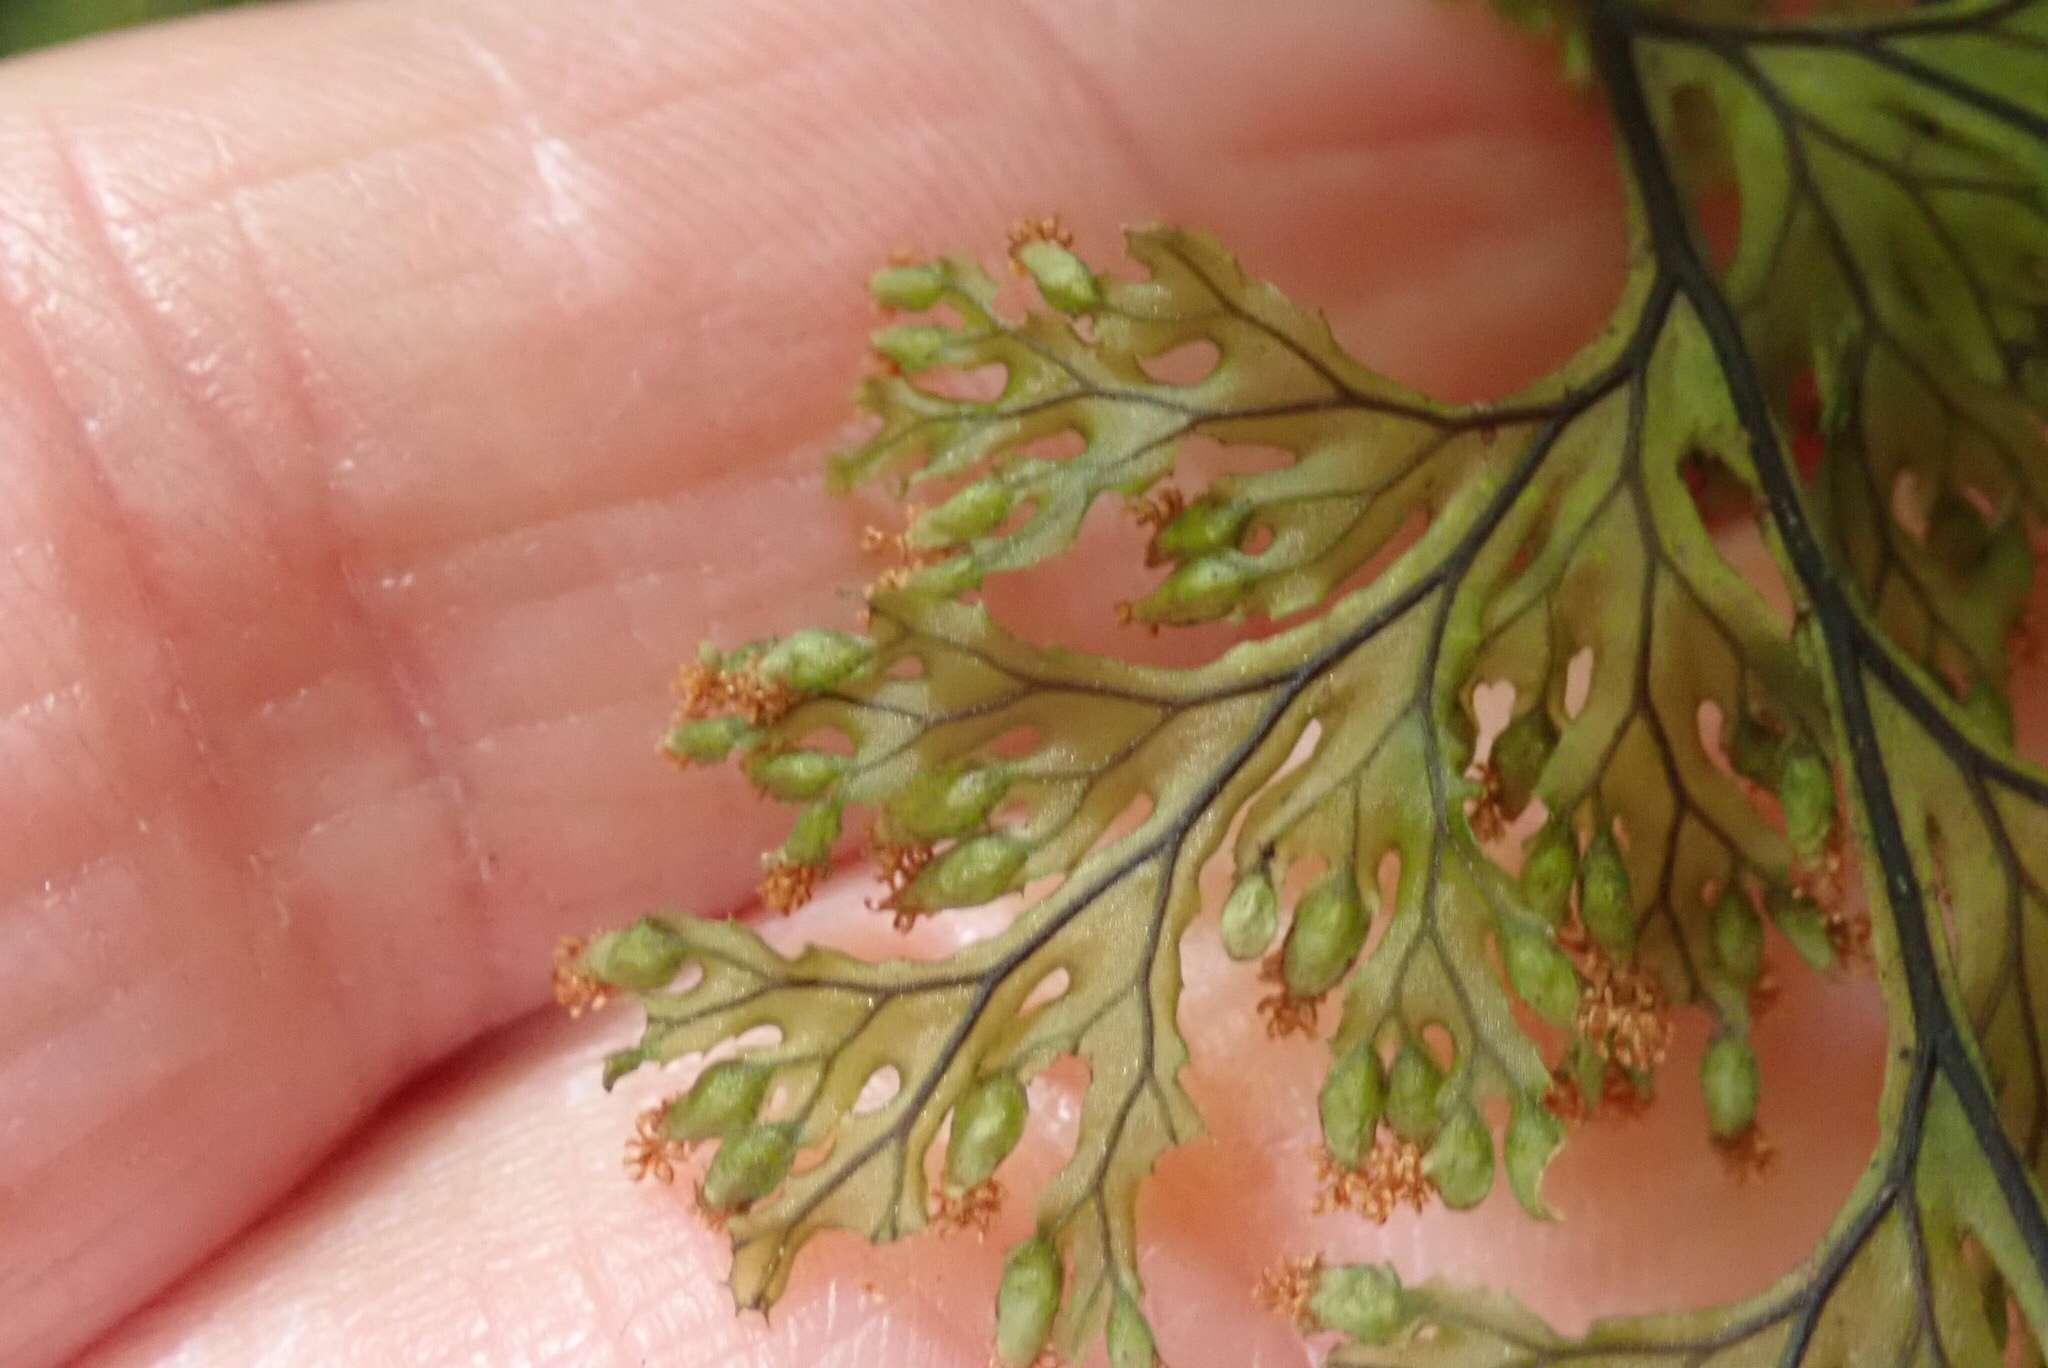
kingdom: Plantae
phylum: Tracheophyta
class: Polypodiopsida
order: Hymenophyllales
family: Hymenophyllaceae
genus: Hymenophyllum
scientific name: Hymenophyllum krauseanum
